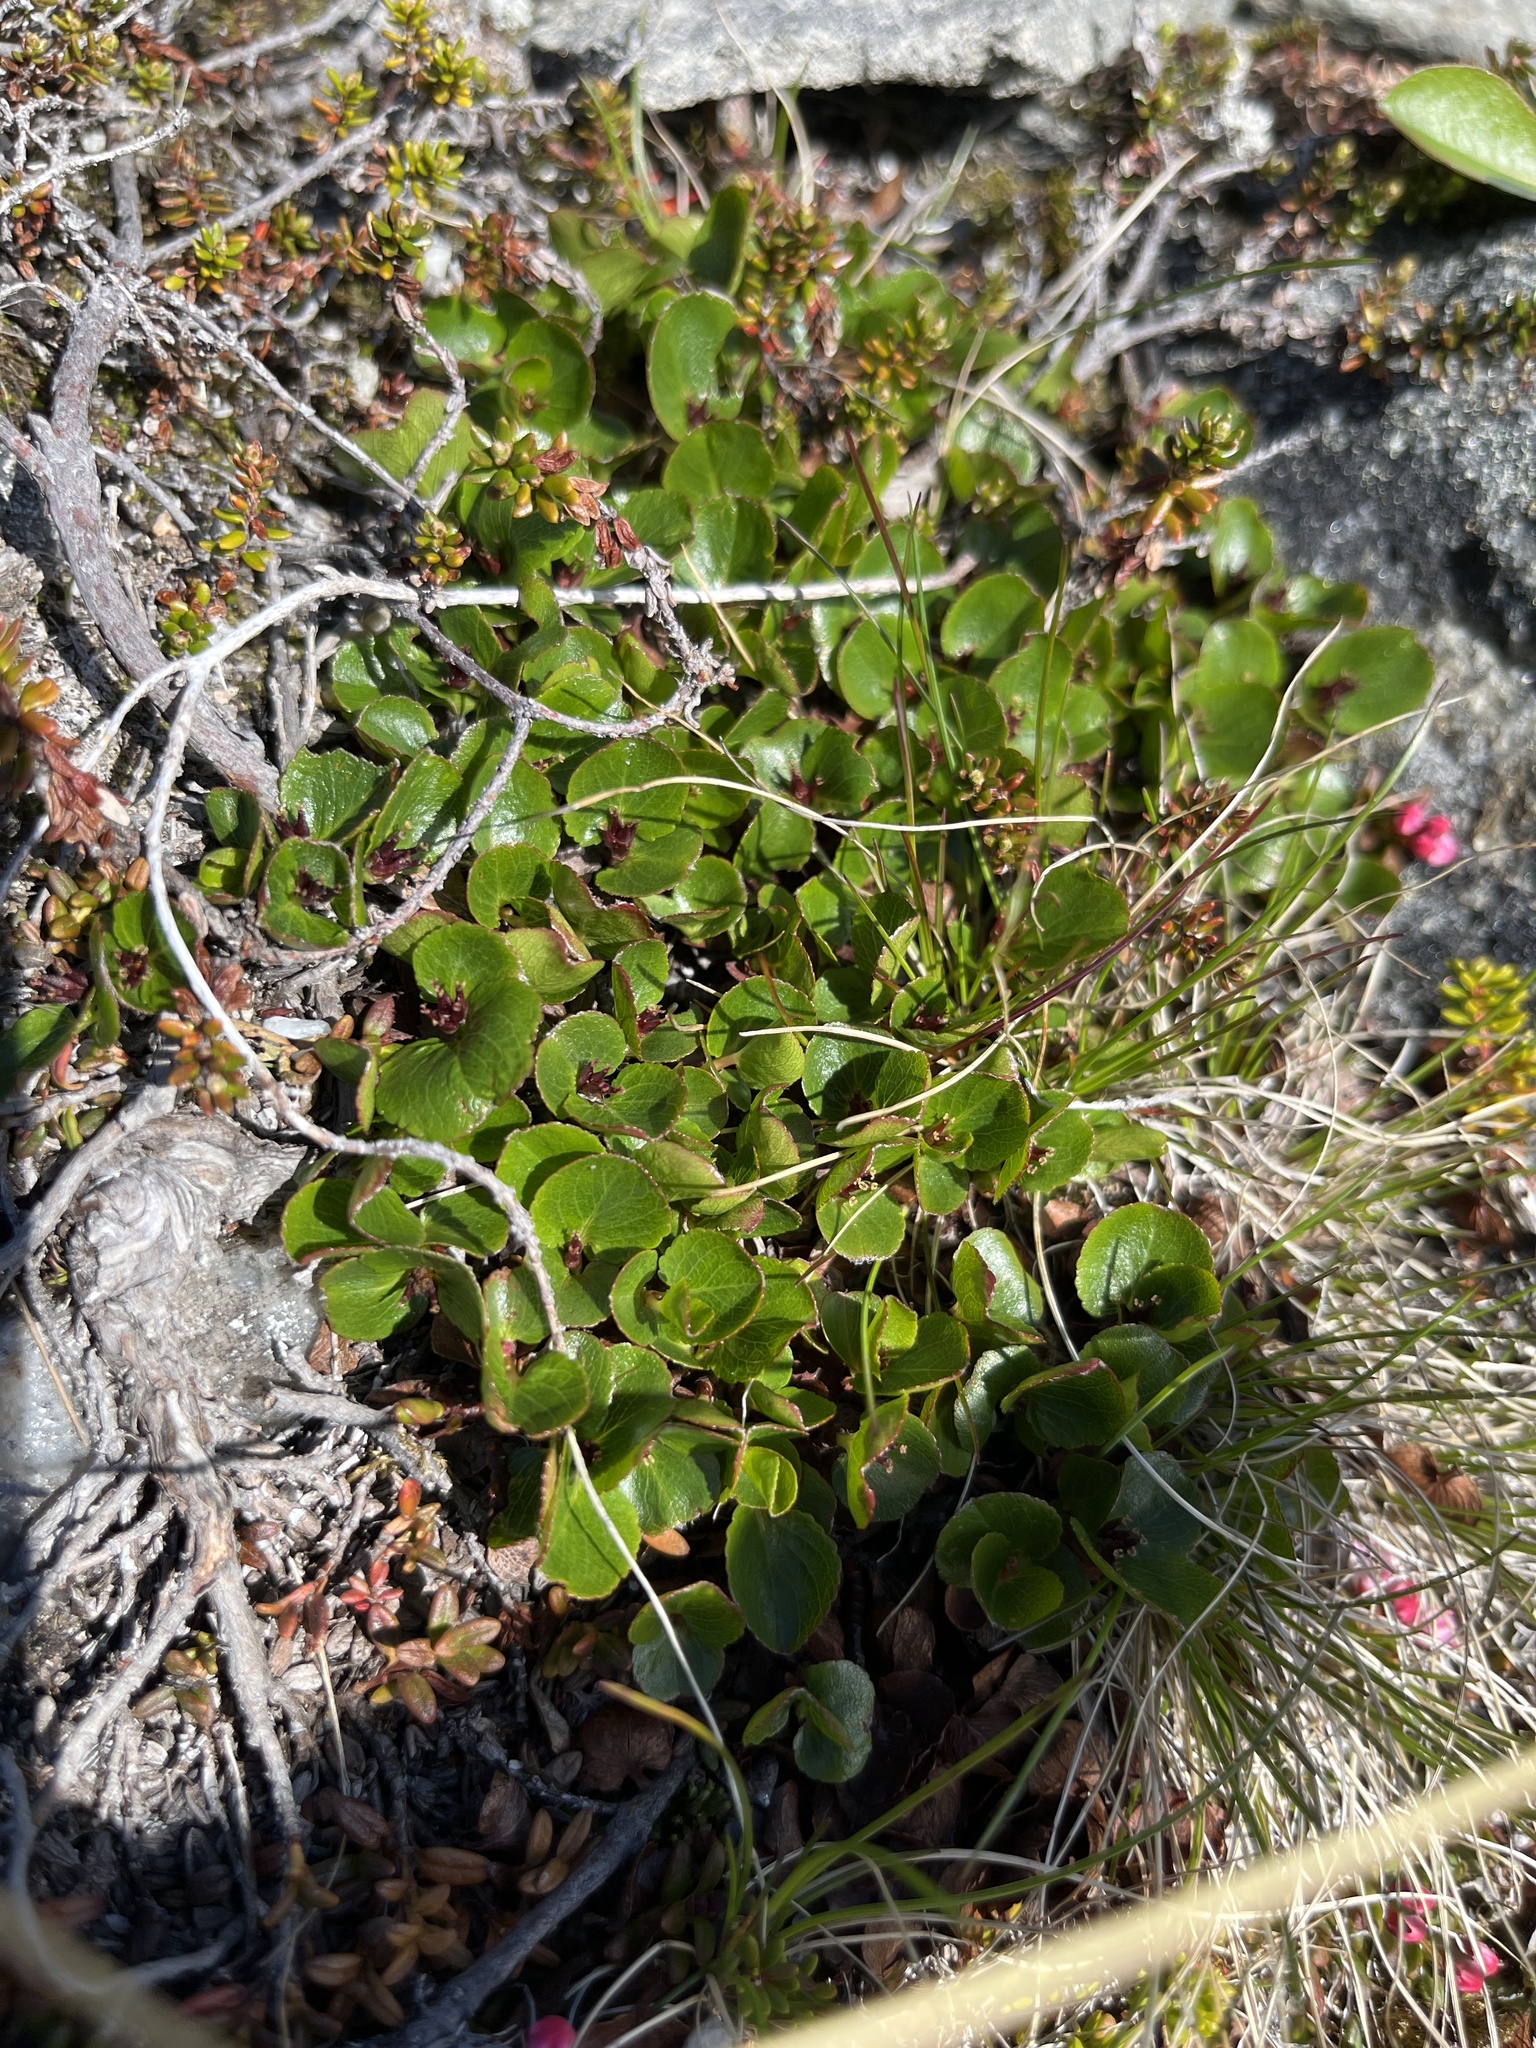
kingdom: Plantae
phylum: Tracheophyta
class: Magnoliopsida
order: Malpighiales
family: Salicaceae
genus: Salix
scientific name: Salix herbacea
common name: Dwarf willow
